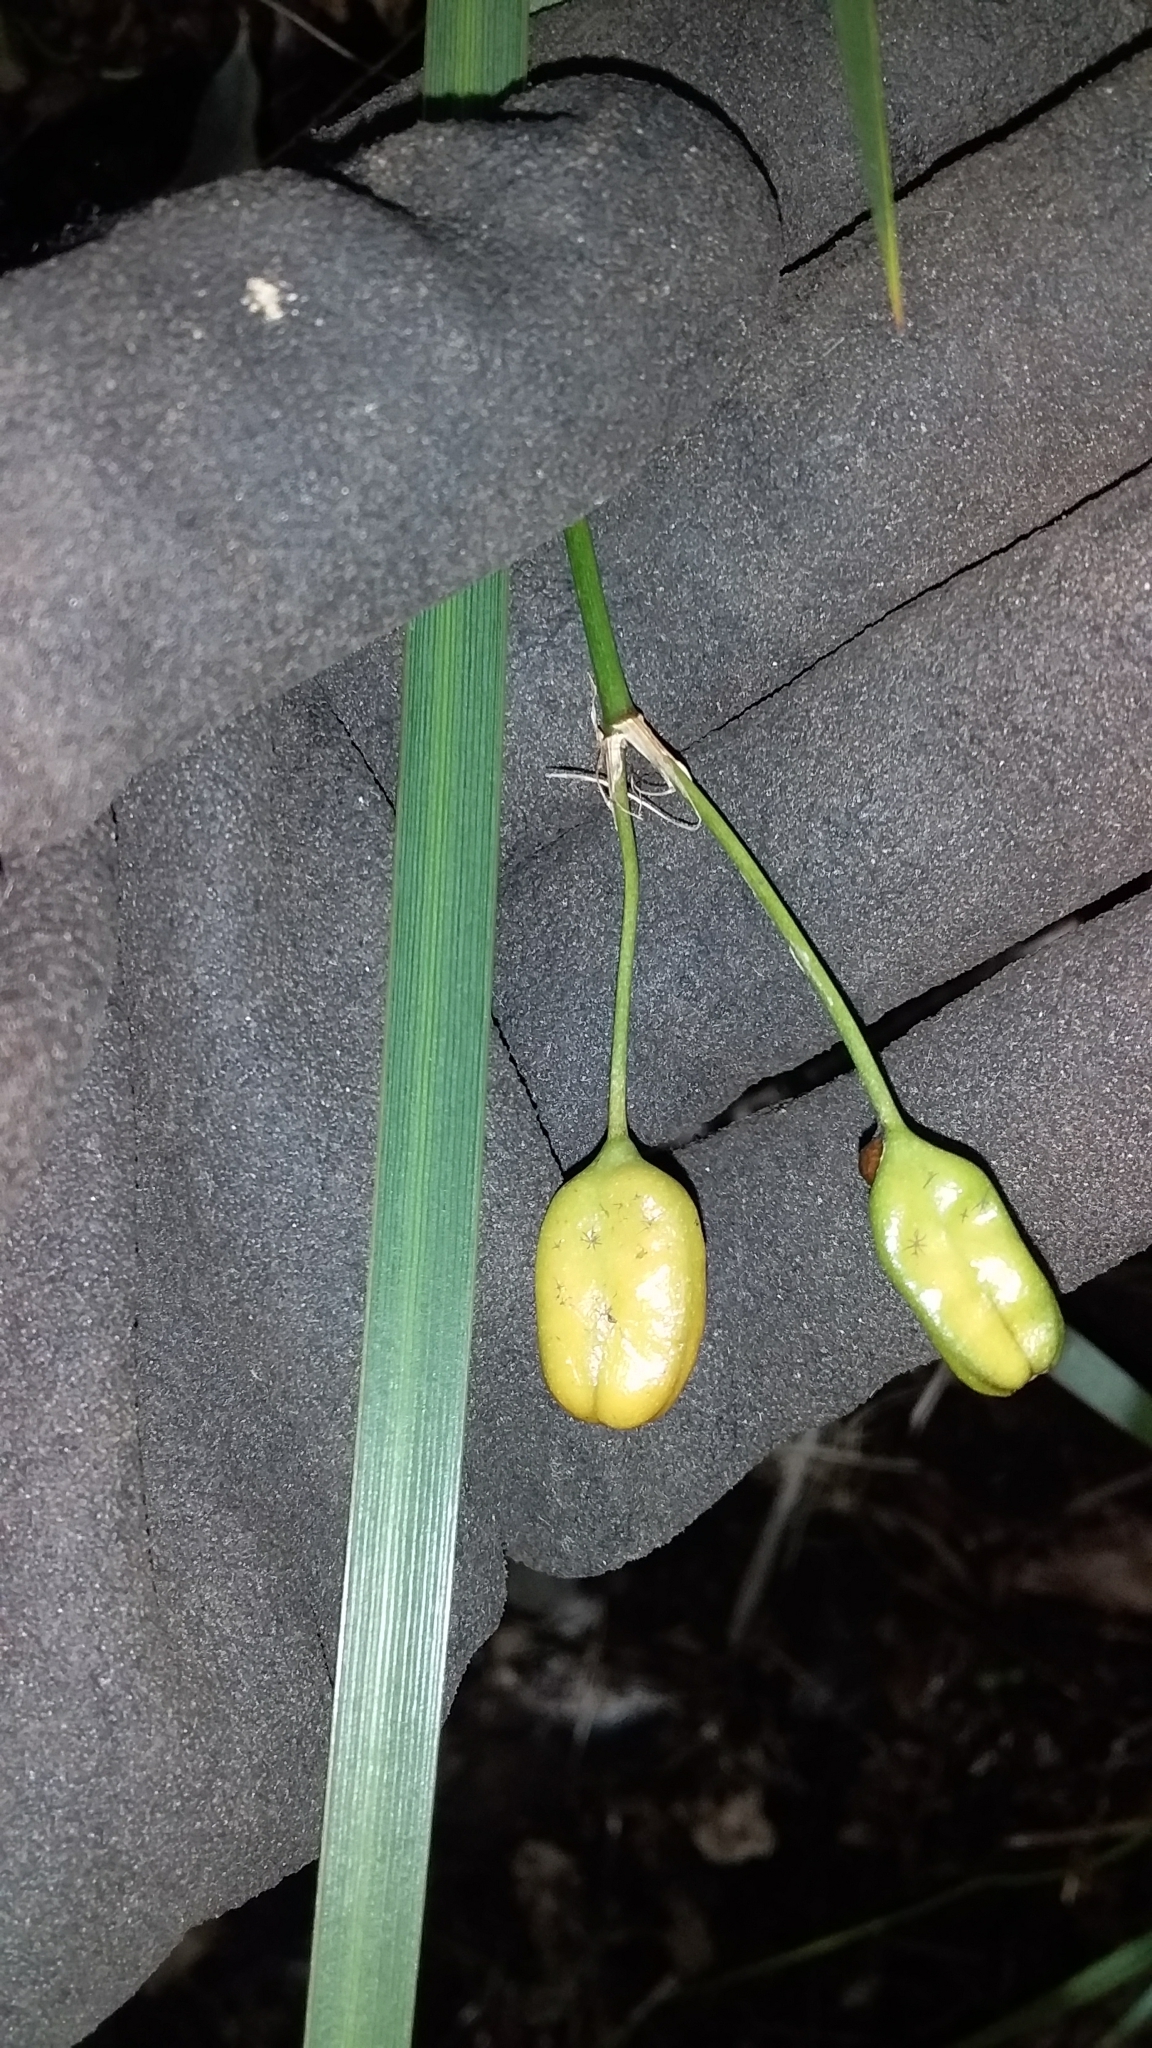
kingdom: Plantae
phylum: Tracheophyta
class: Liliopsida
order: Asparagales
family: Iridaceae
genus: Libertia
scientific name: Libertia ixioides
